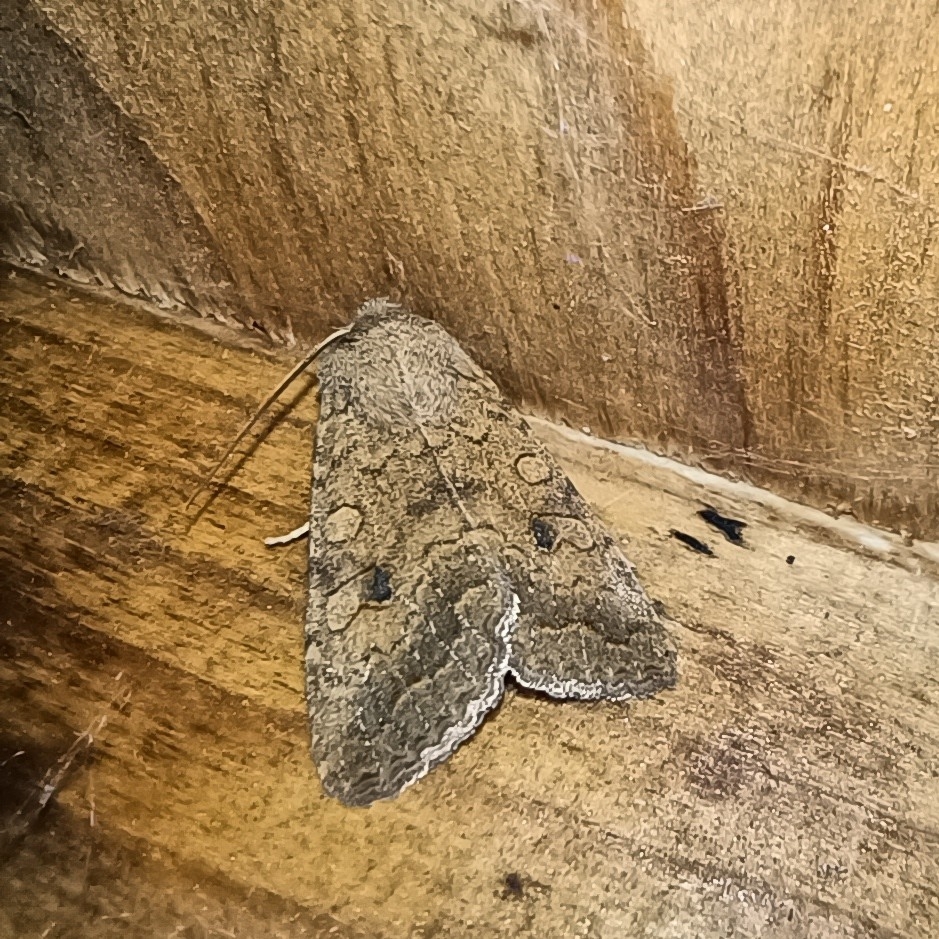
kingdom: Animalia
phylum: Arthropoda
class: Insecta
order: Lepidoptera
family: Noctuidae
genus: Sunira
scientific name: Sunira circellaris
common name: Brick
